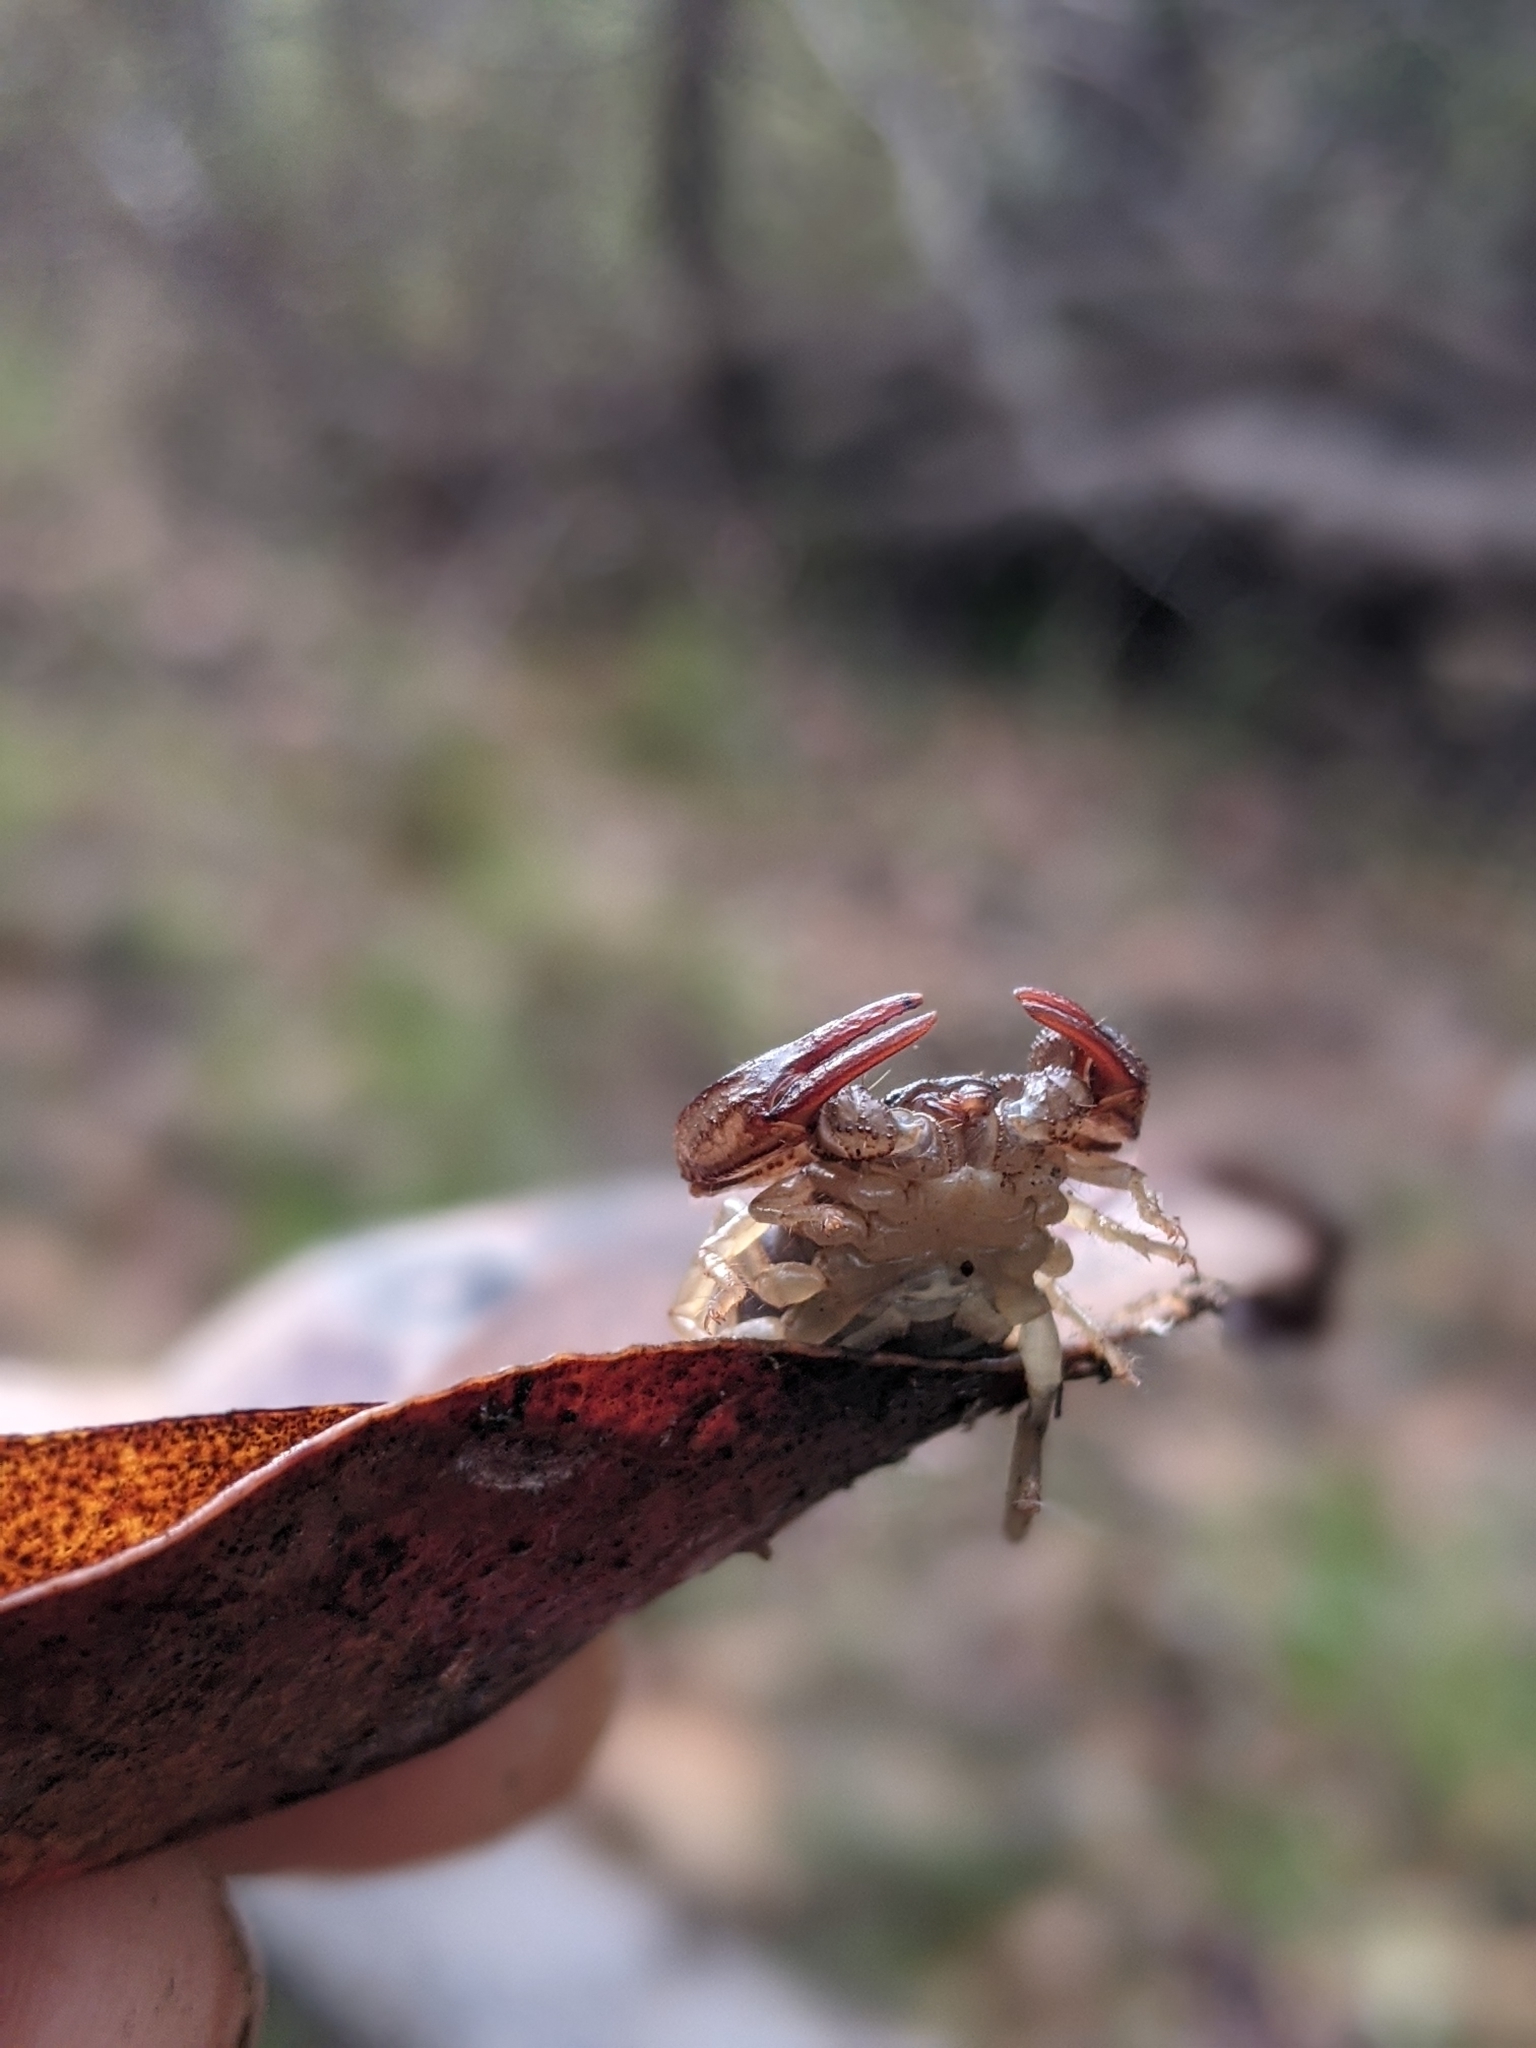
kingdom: Animalia
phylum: Arthropoda
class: Arachnida
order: Scorpiones
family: Chactidae
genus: Uroctonus
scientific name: Uroctonus mordax
